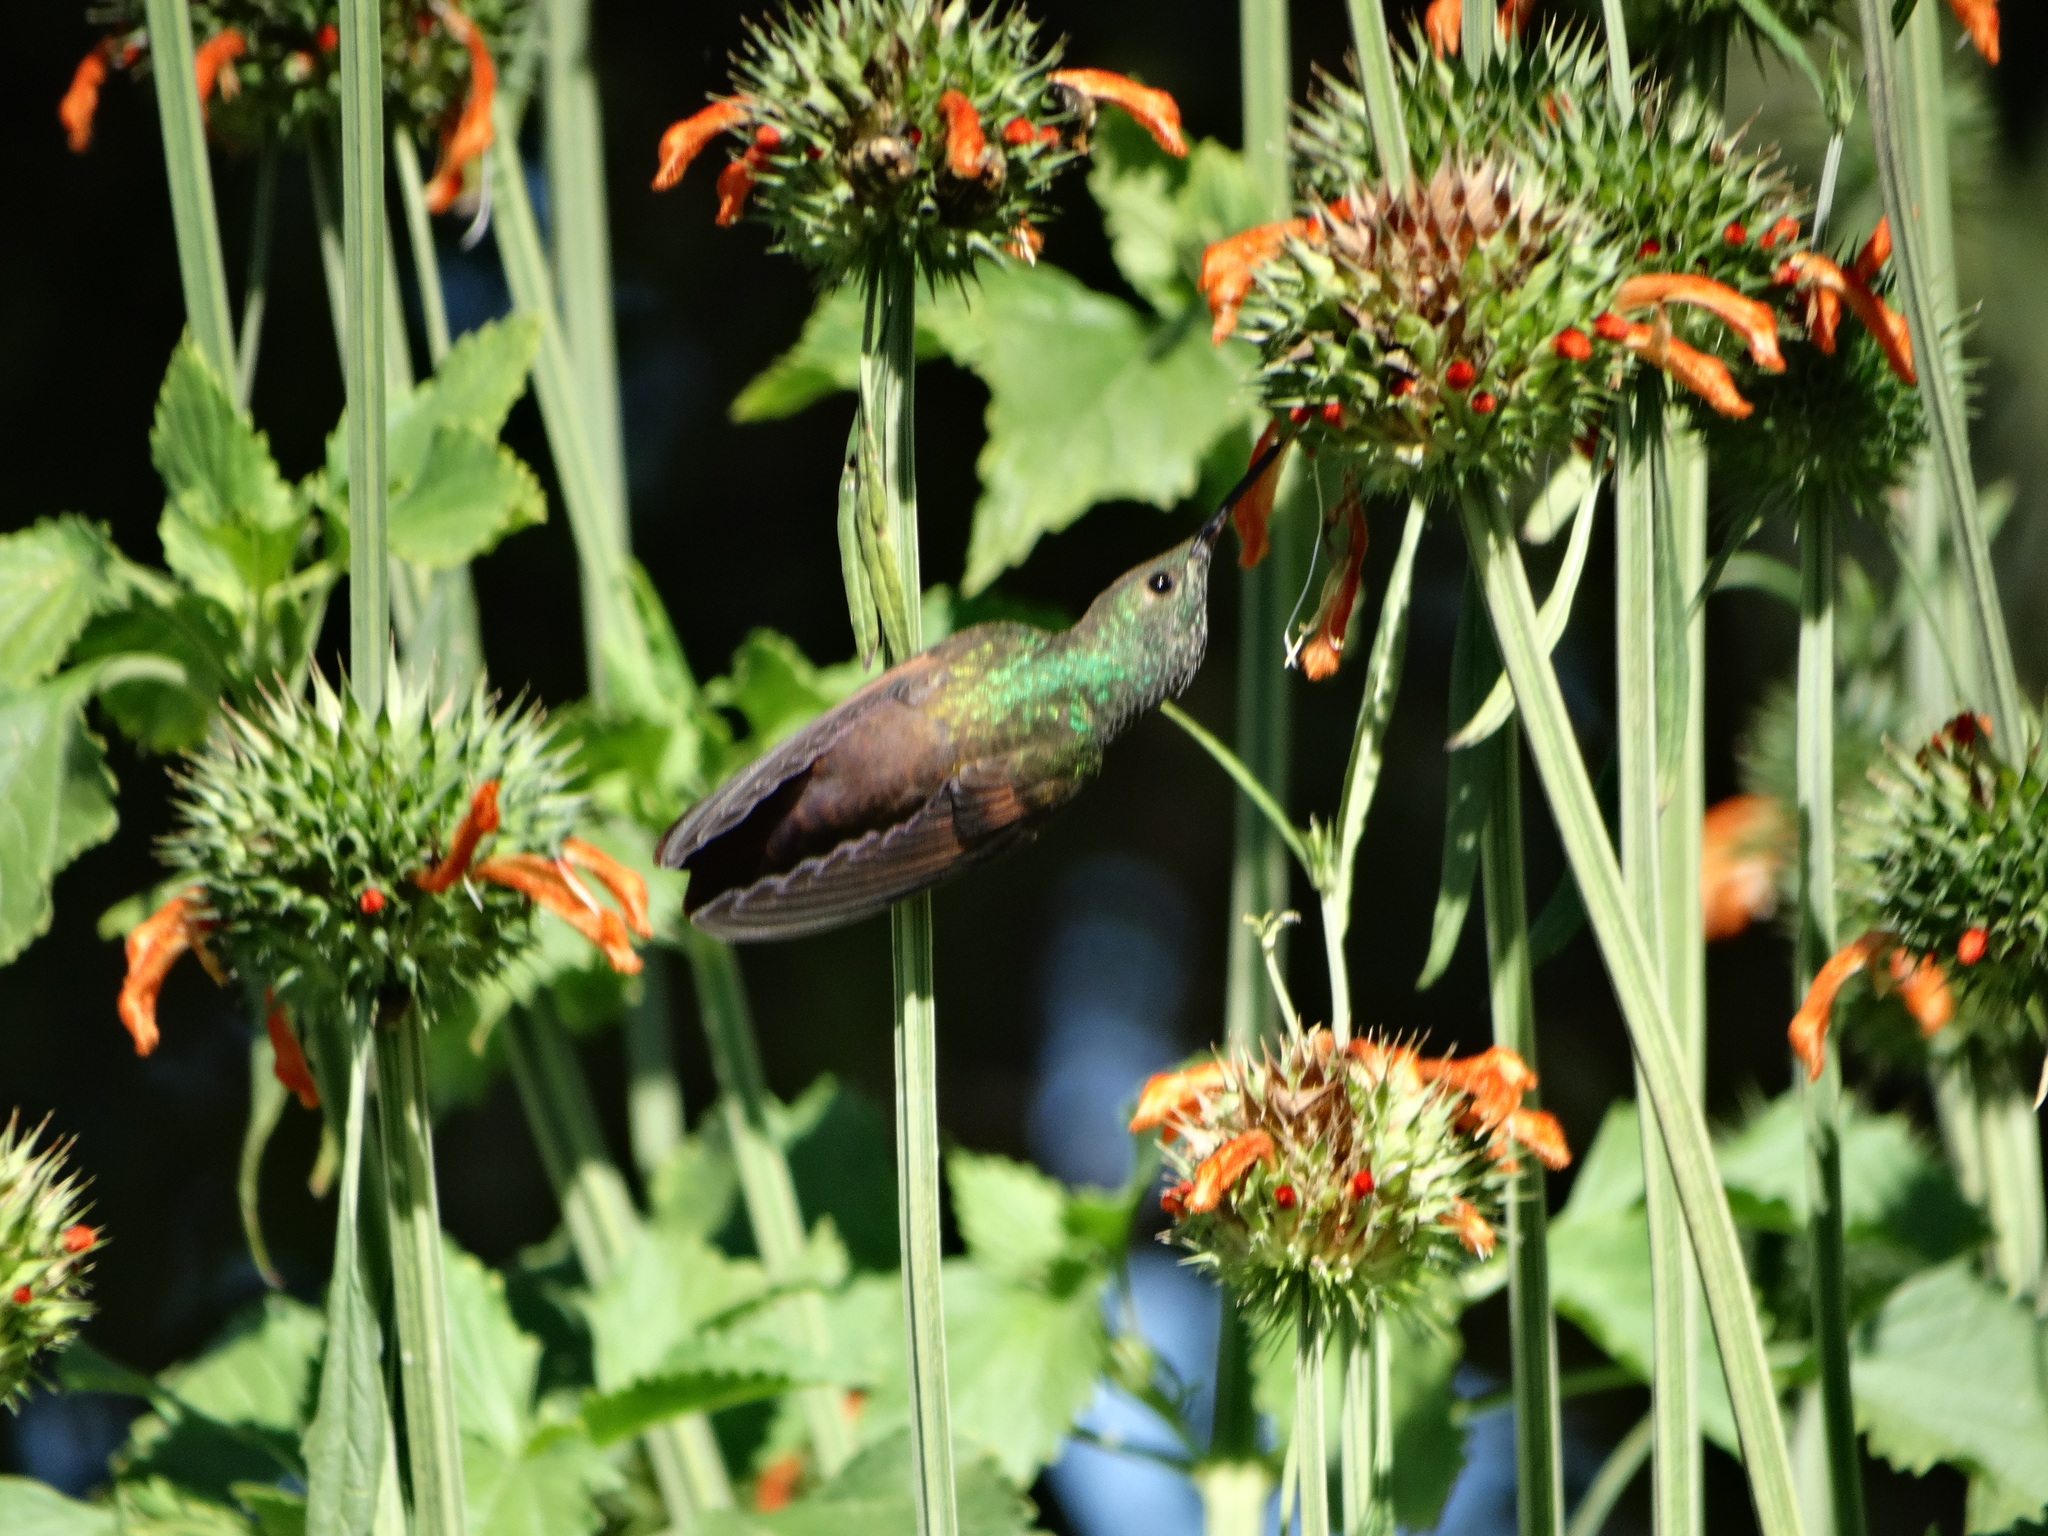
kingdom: Animalia
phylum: Chordata
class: Aves
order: Apodiformes
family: Trochilidae
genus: Saucerottia
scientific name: Saucerottia beryllina
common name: Berylline hummingbird
